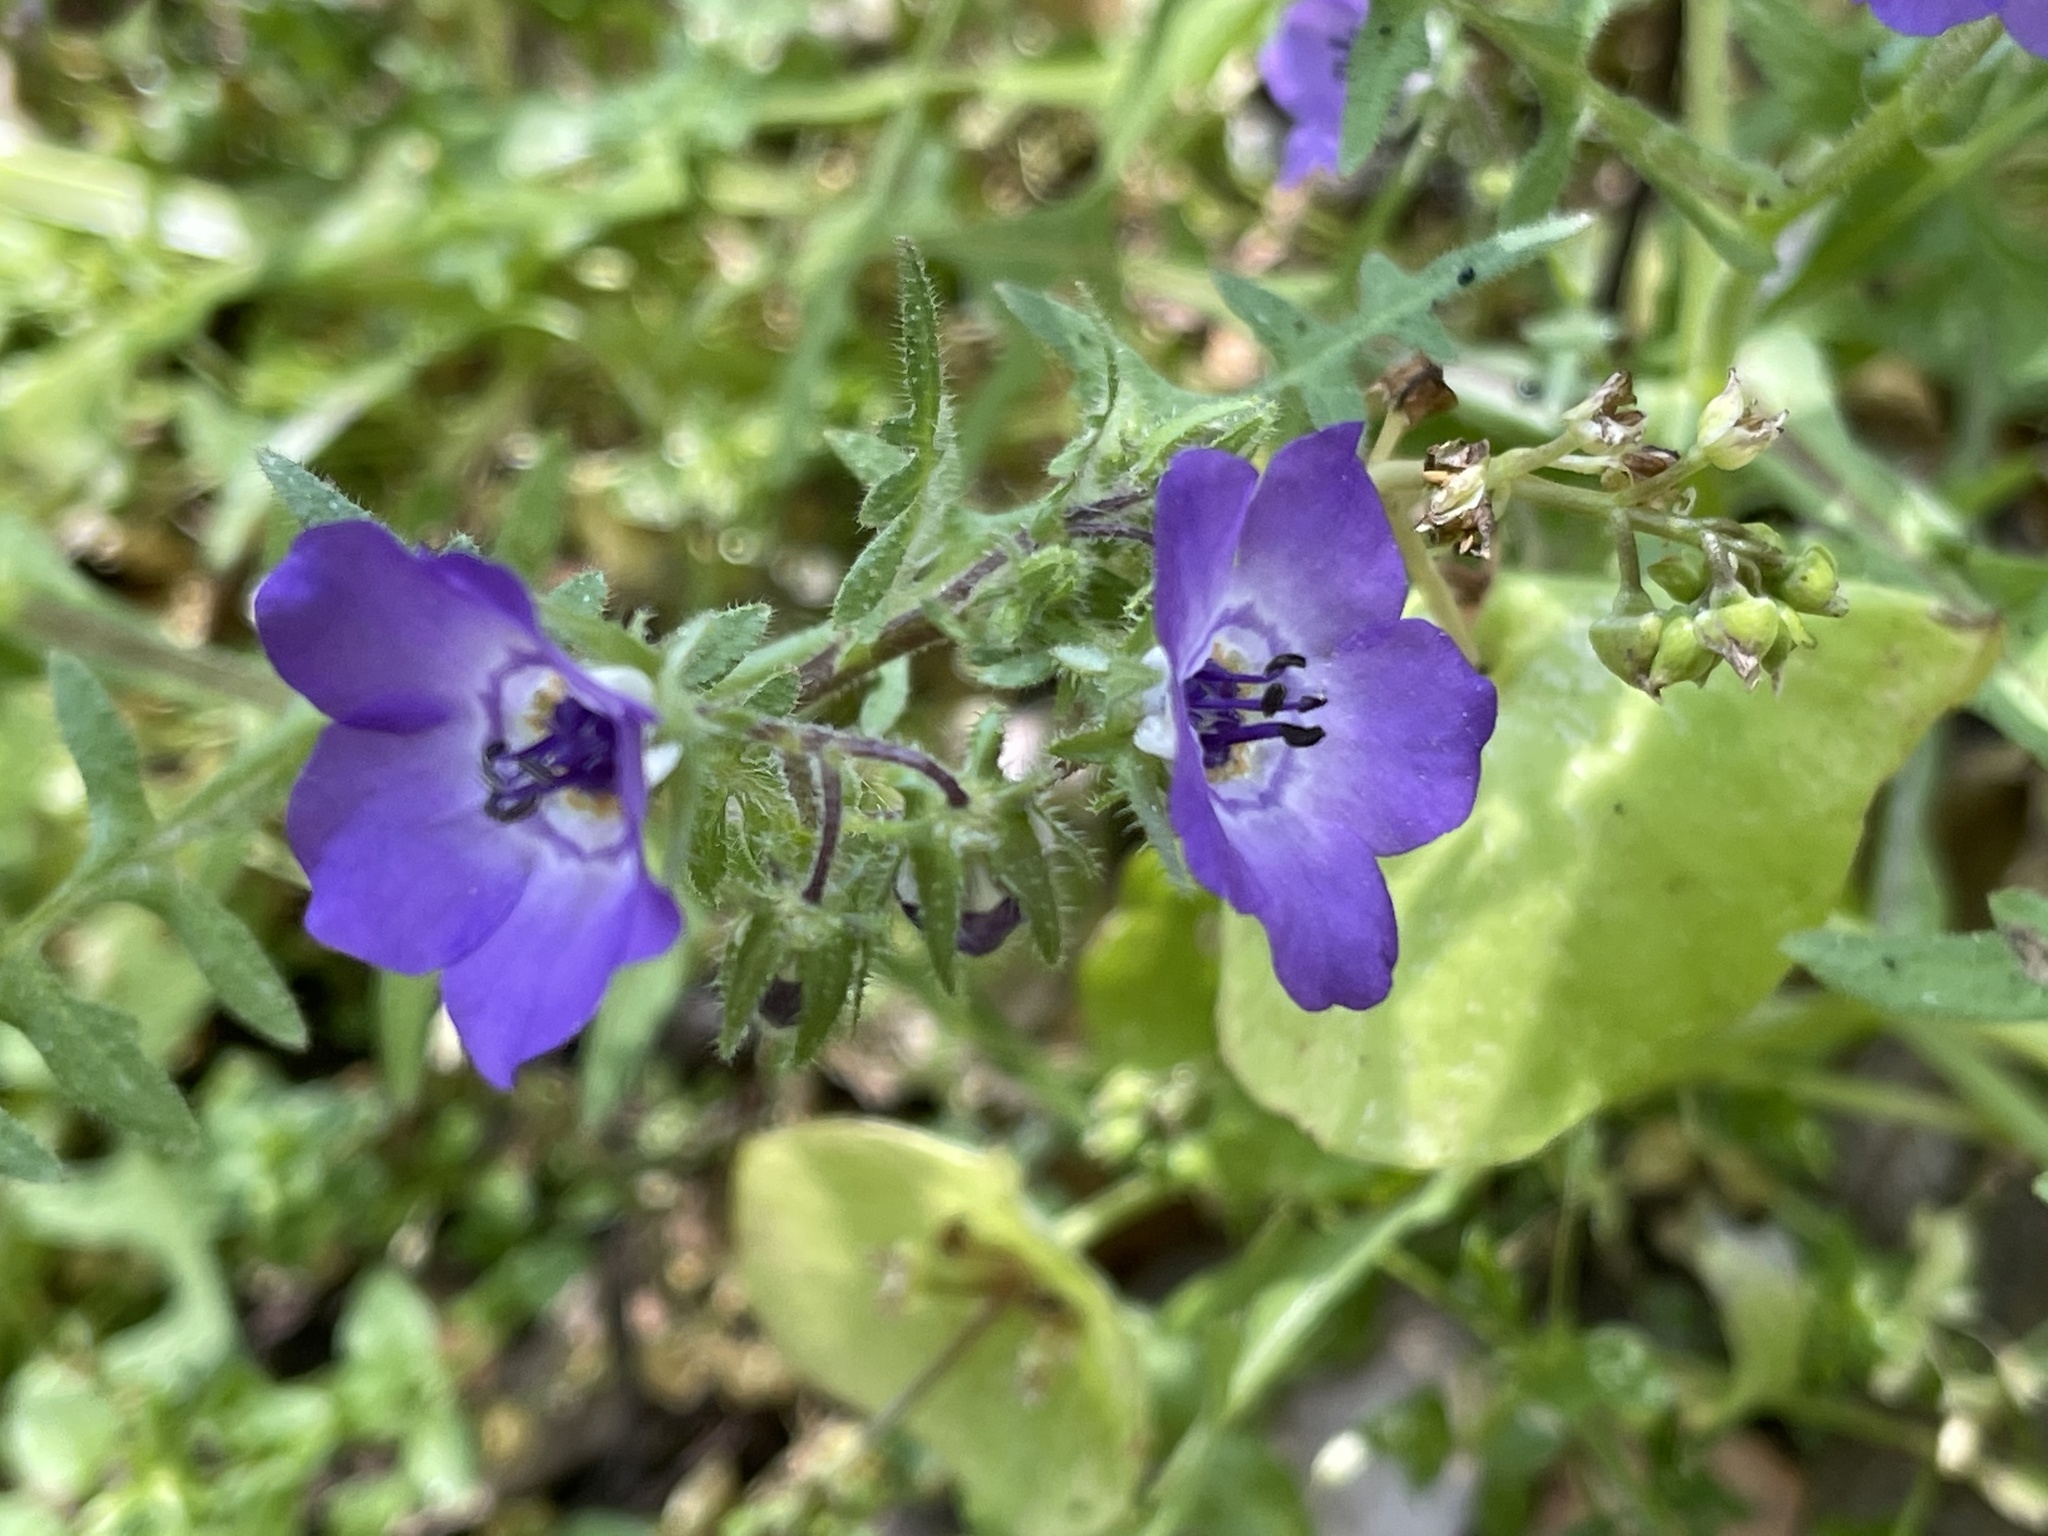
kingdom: Plantae
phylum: Tracheophyta
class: Magnoliopsida
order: Boraginales
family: Hydrophyllaceae
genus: Pholistoma
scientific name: Pholistoma auritum
